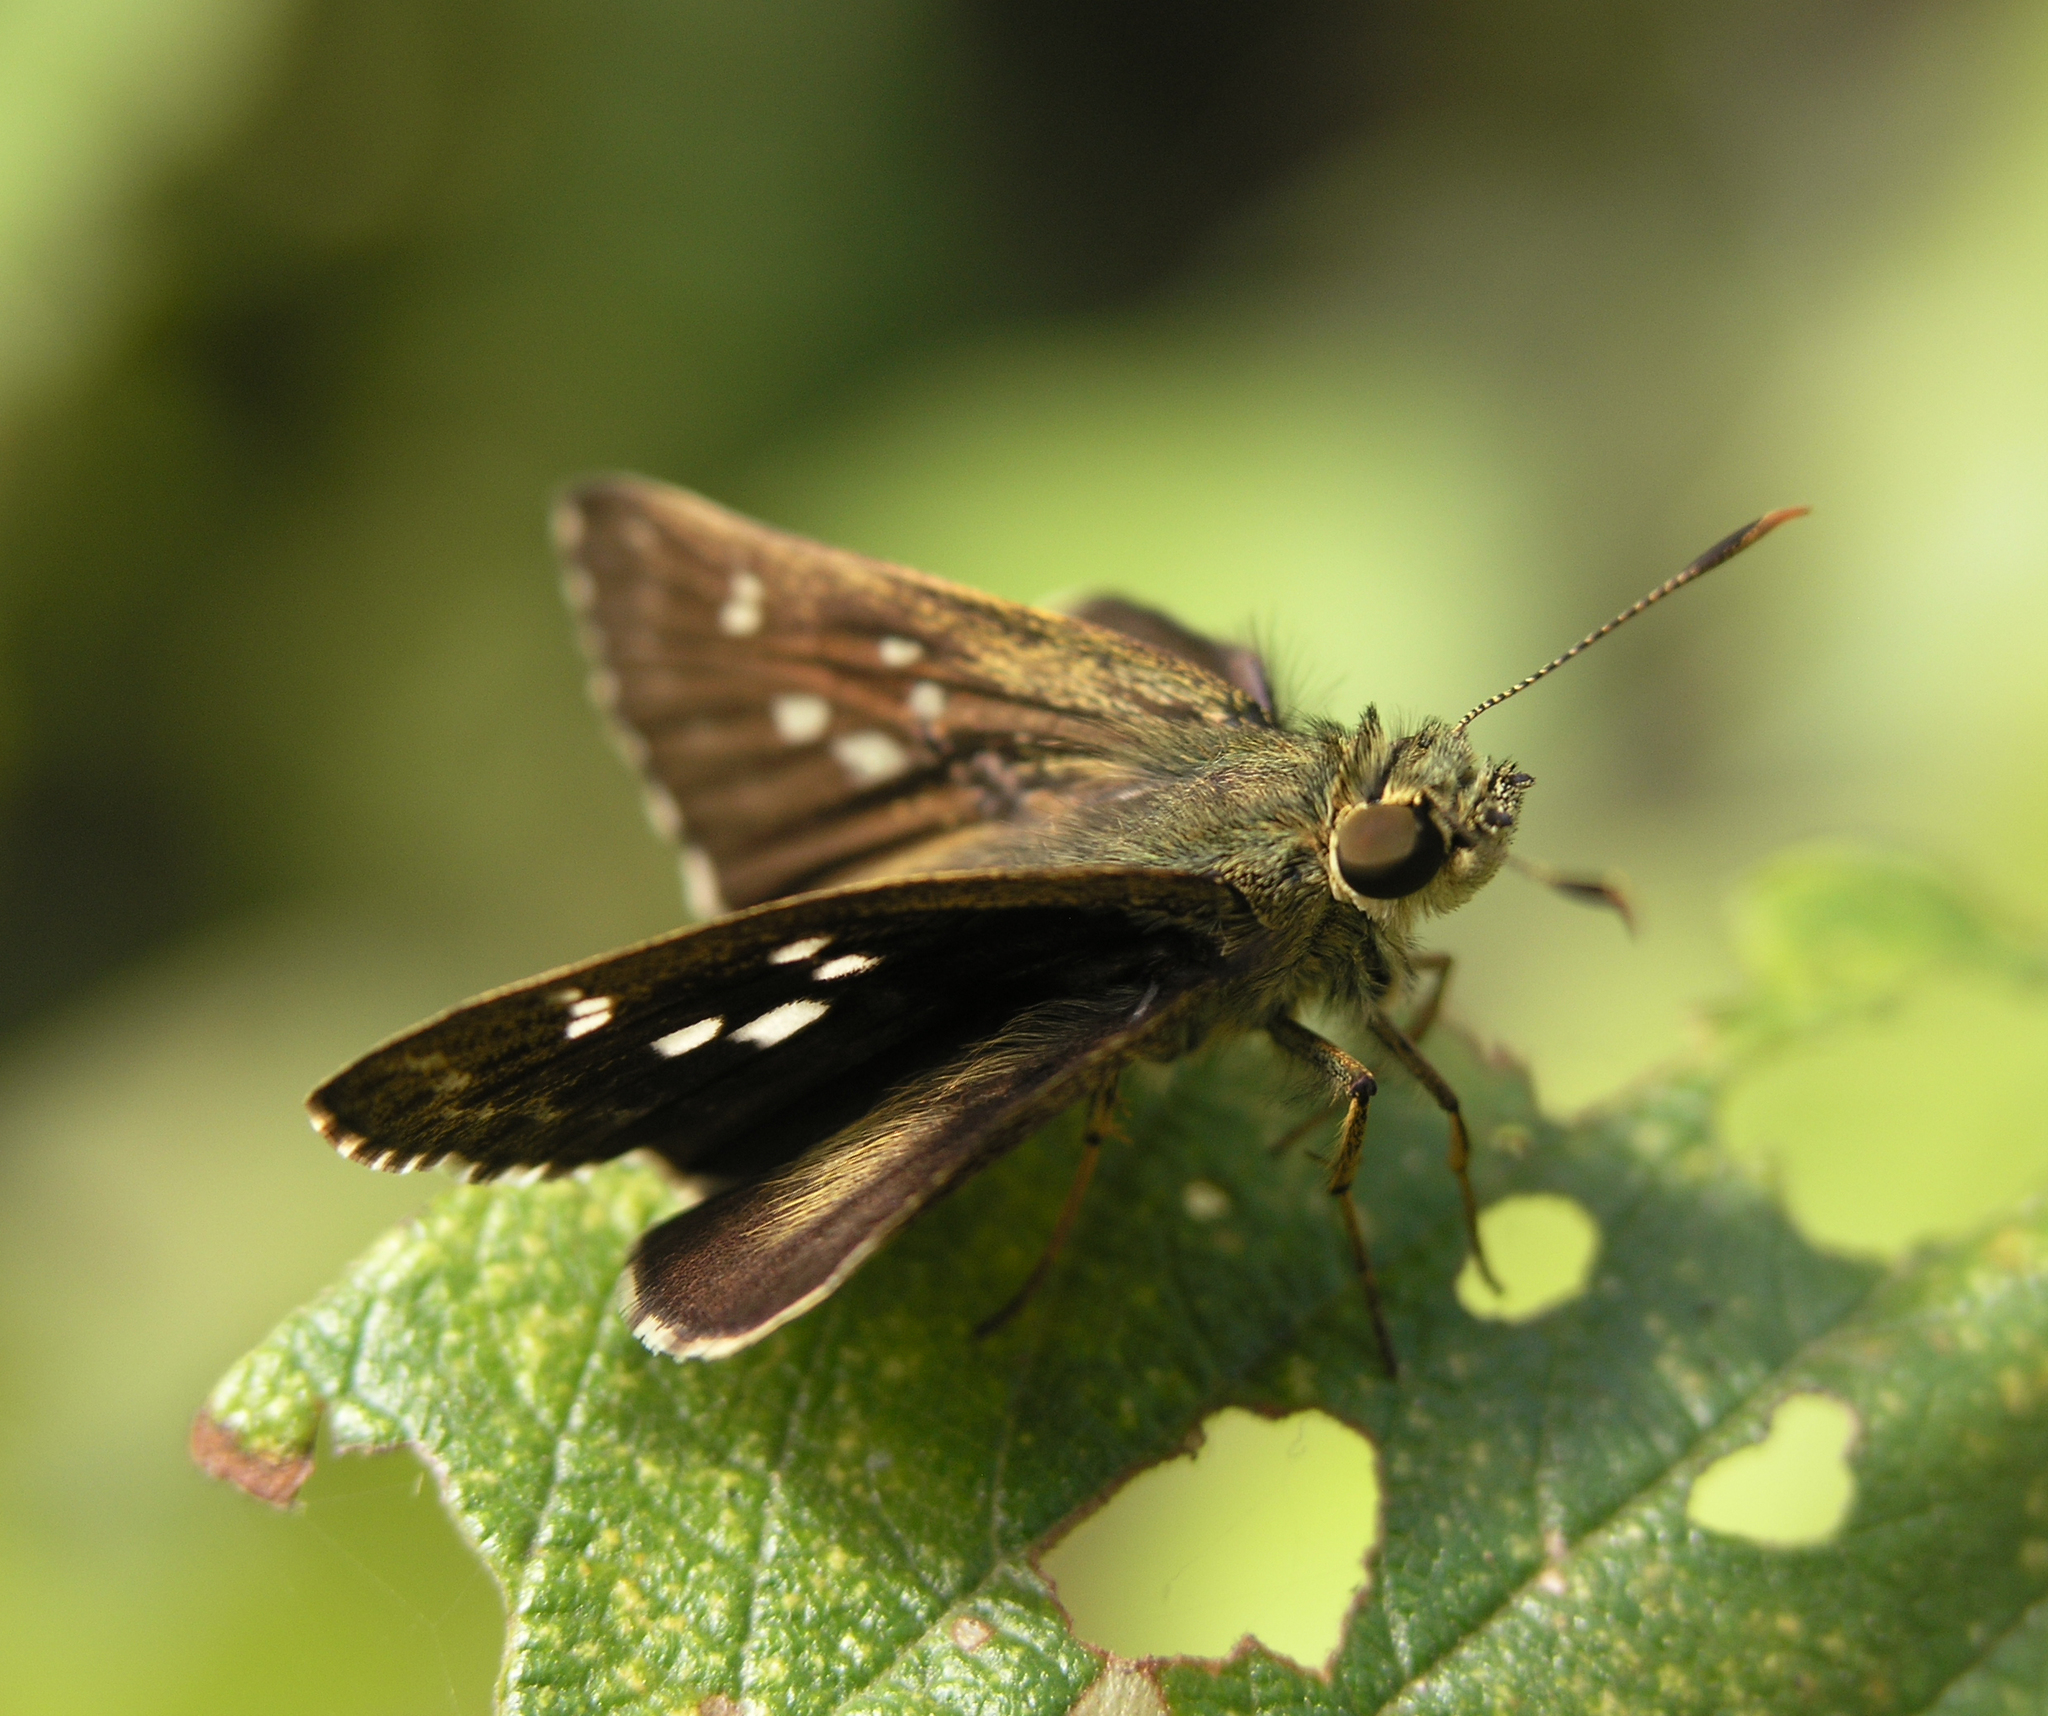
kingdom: Animalia
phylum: Arthropoda
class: Insecta
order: Lepidoptera
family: Hesperiidae
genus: Halpe
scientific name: Halpe porus
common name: Moore's ace
